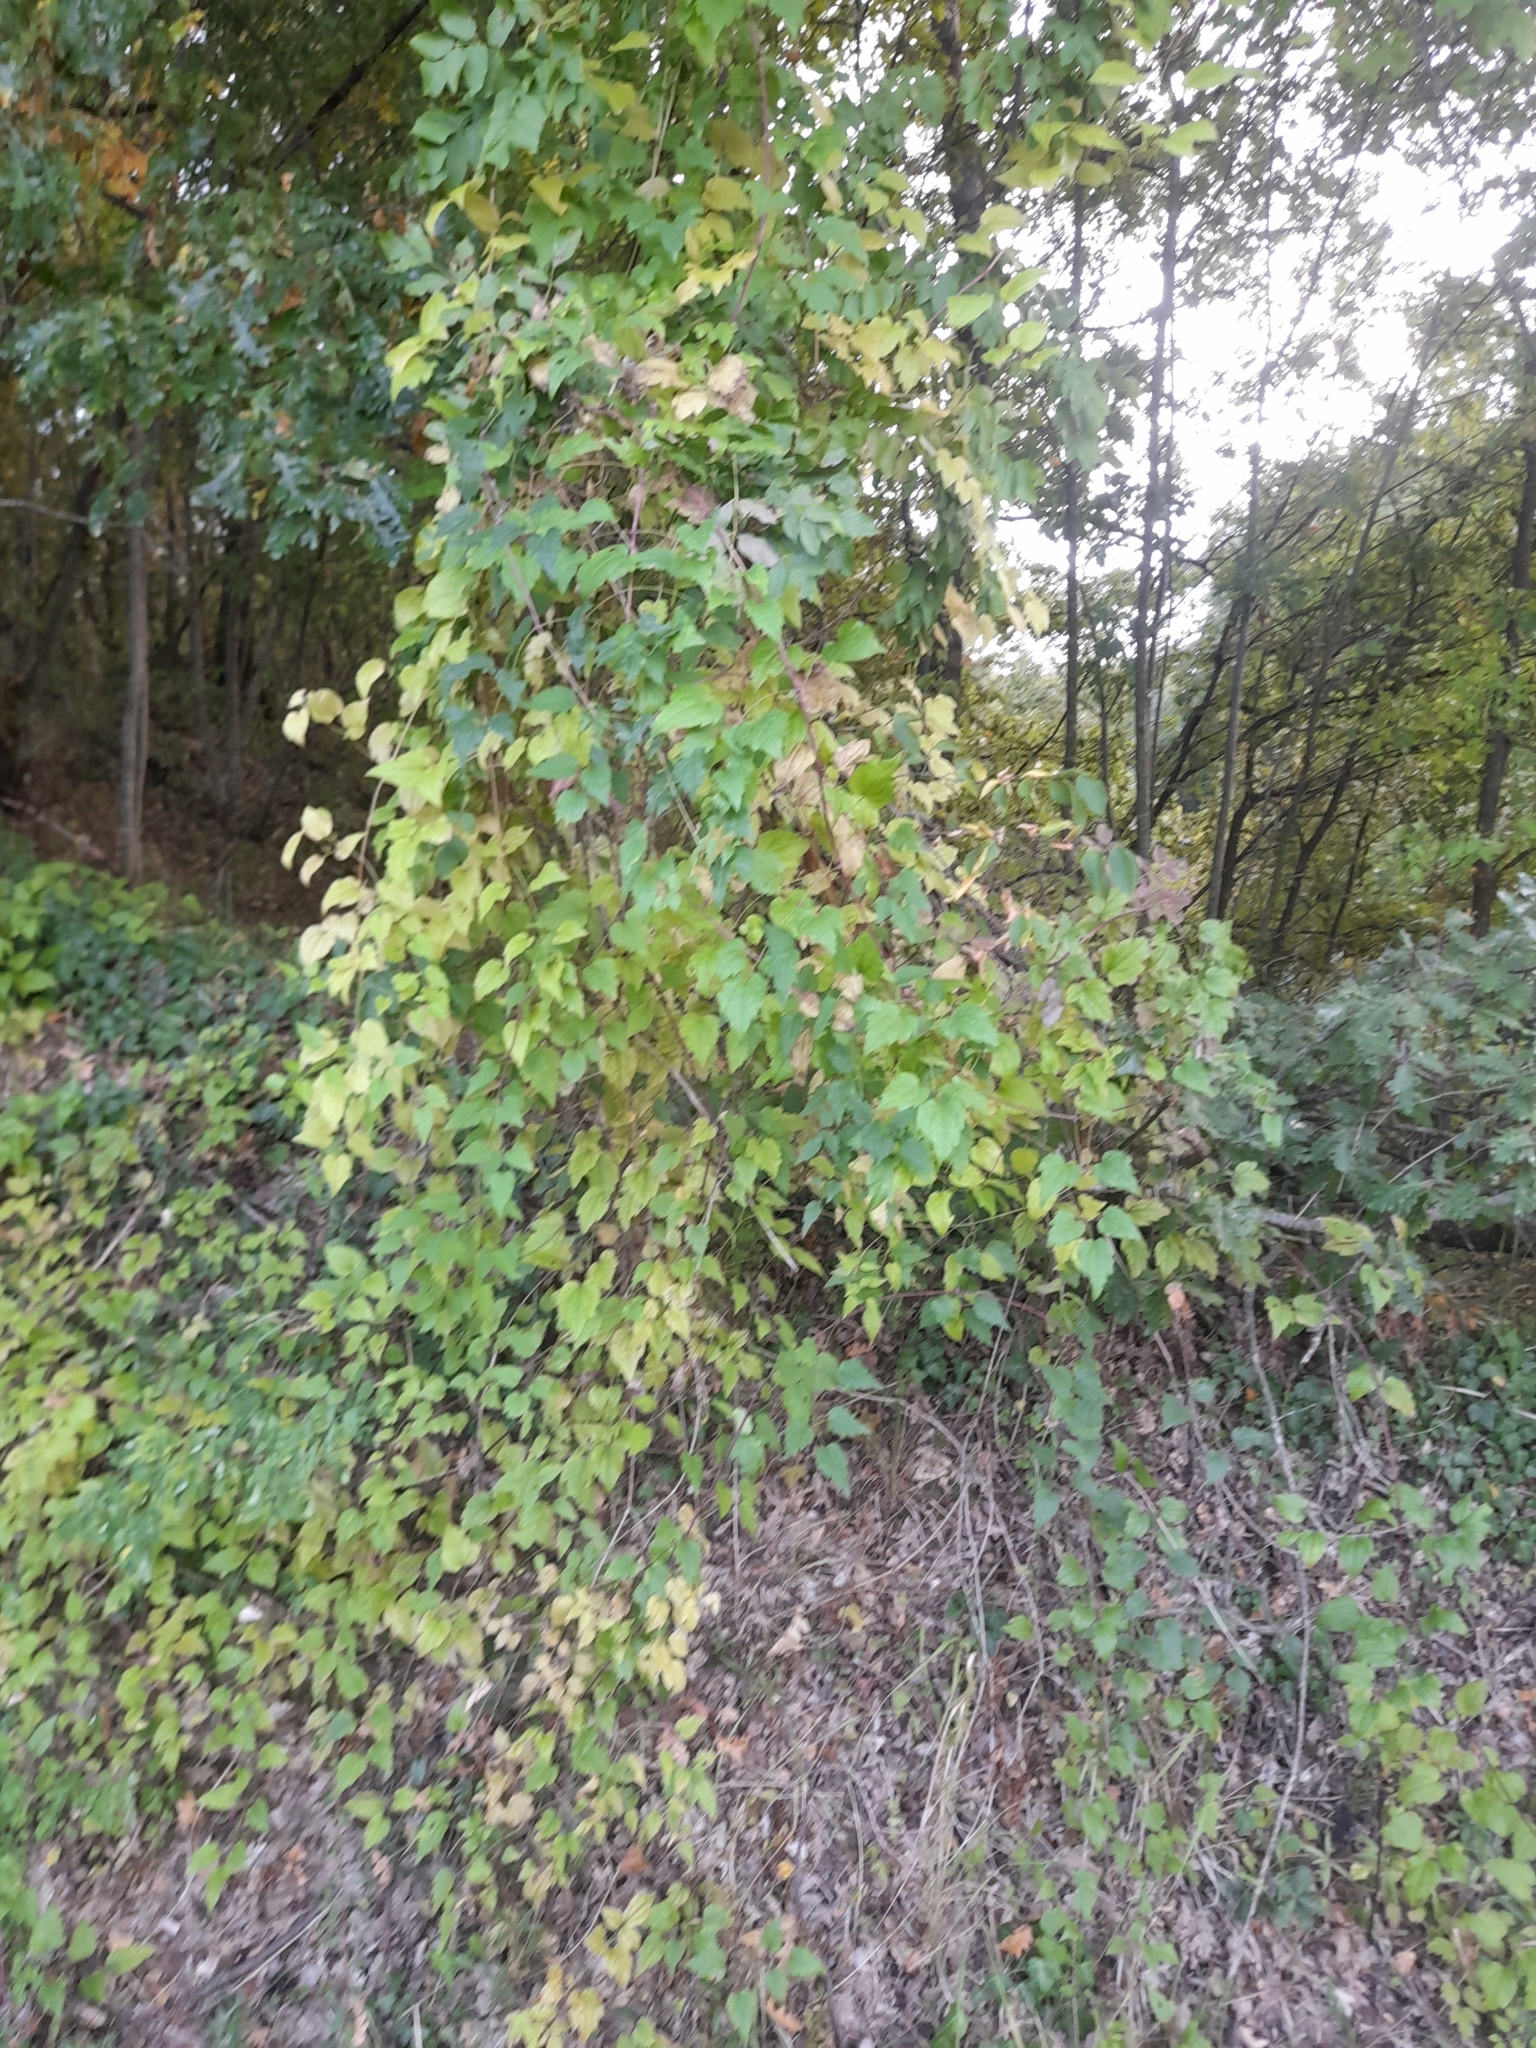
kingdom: Plantae
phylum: Tracheophyta
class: Magnoliopsida
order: Ranunculales
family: Ranunculaceae
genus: Clematis
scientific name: Clematis vitalba
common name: Evergreen clematis
